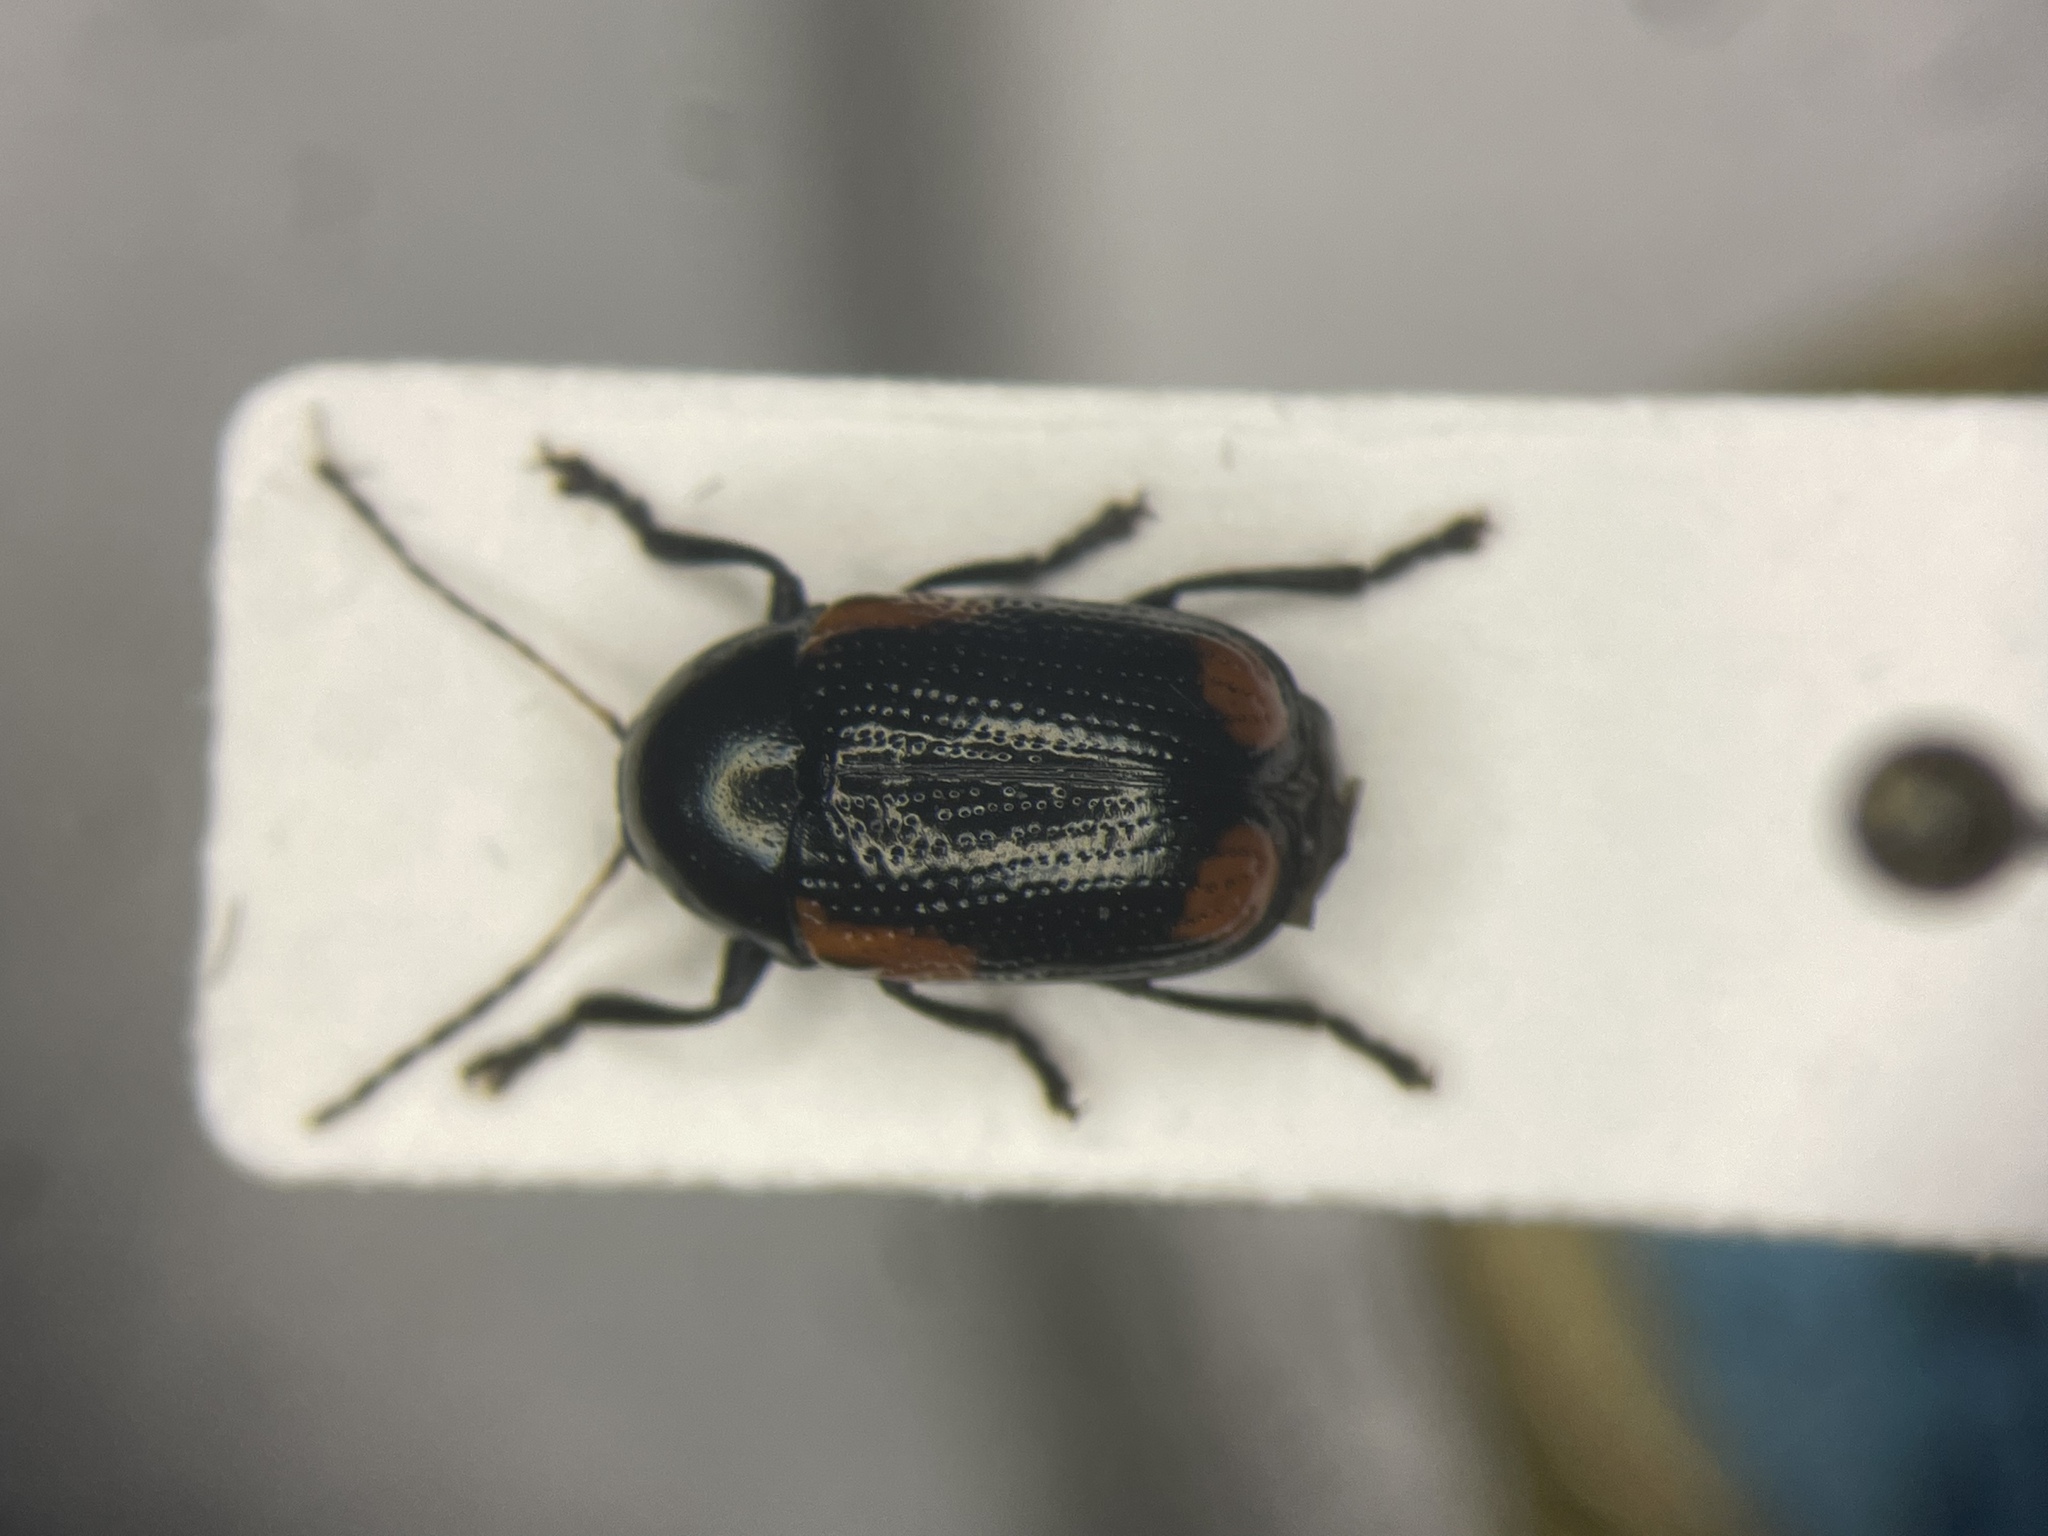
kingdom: Animalia
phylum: Arthropoda
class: Insecta
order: Coleoptera
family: Chrysomelidae
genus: Cryptocephalus
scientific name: Cryptocephalus notatus
